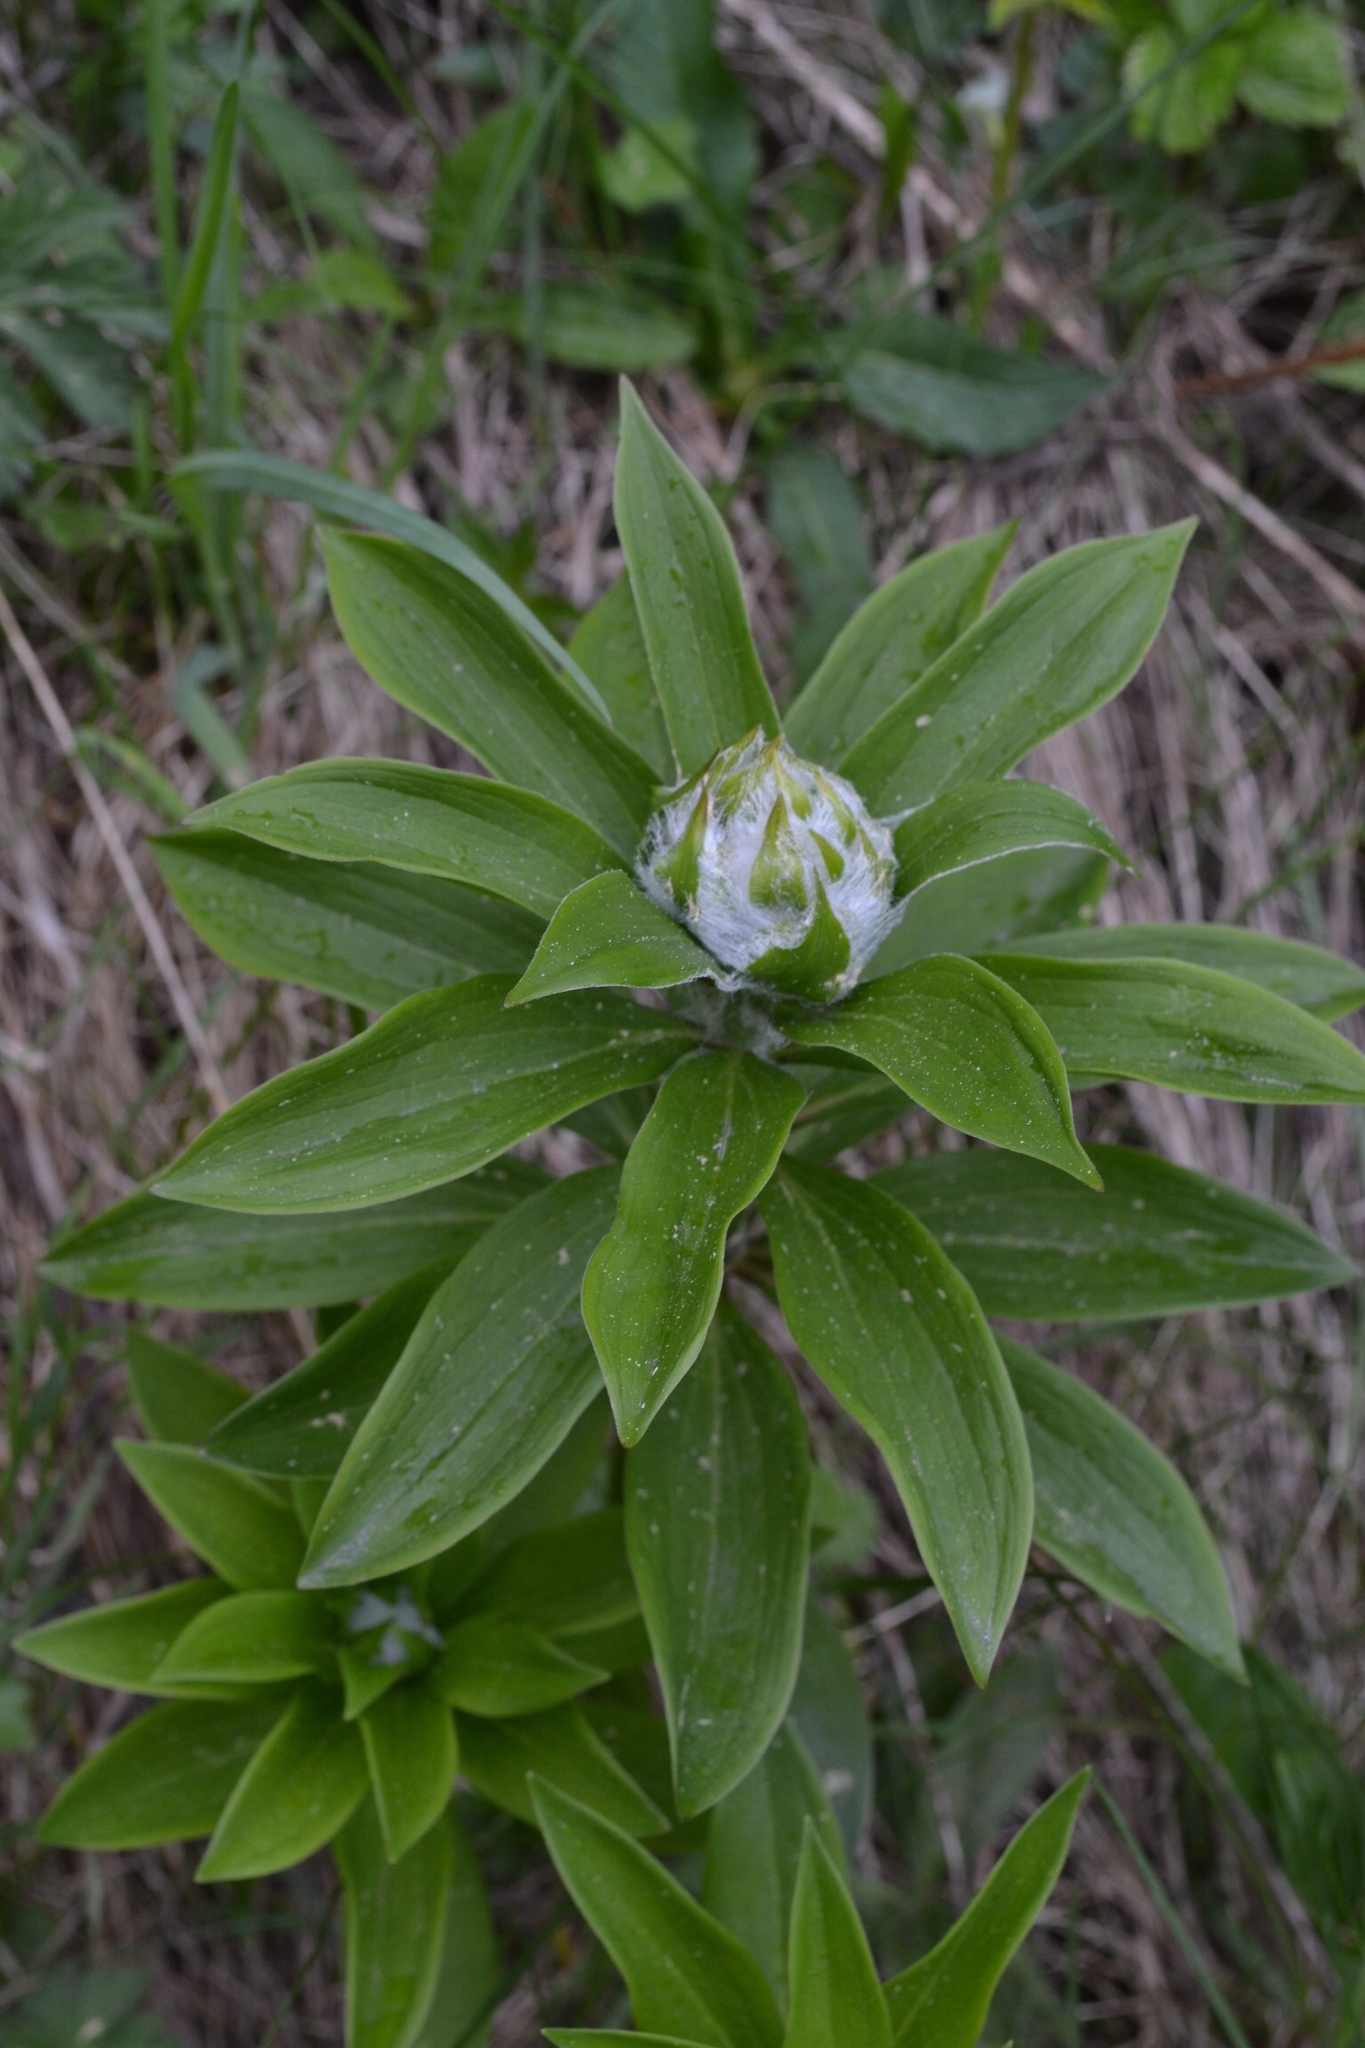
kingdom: Plantae
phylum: Tracheophyta
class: Liliopsida
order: Liliales
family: Liliaceae
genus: Lilium
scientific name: Lilium martagon
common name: Martagon lily
